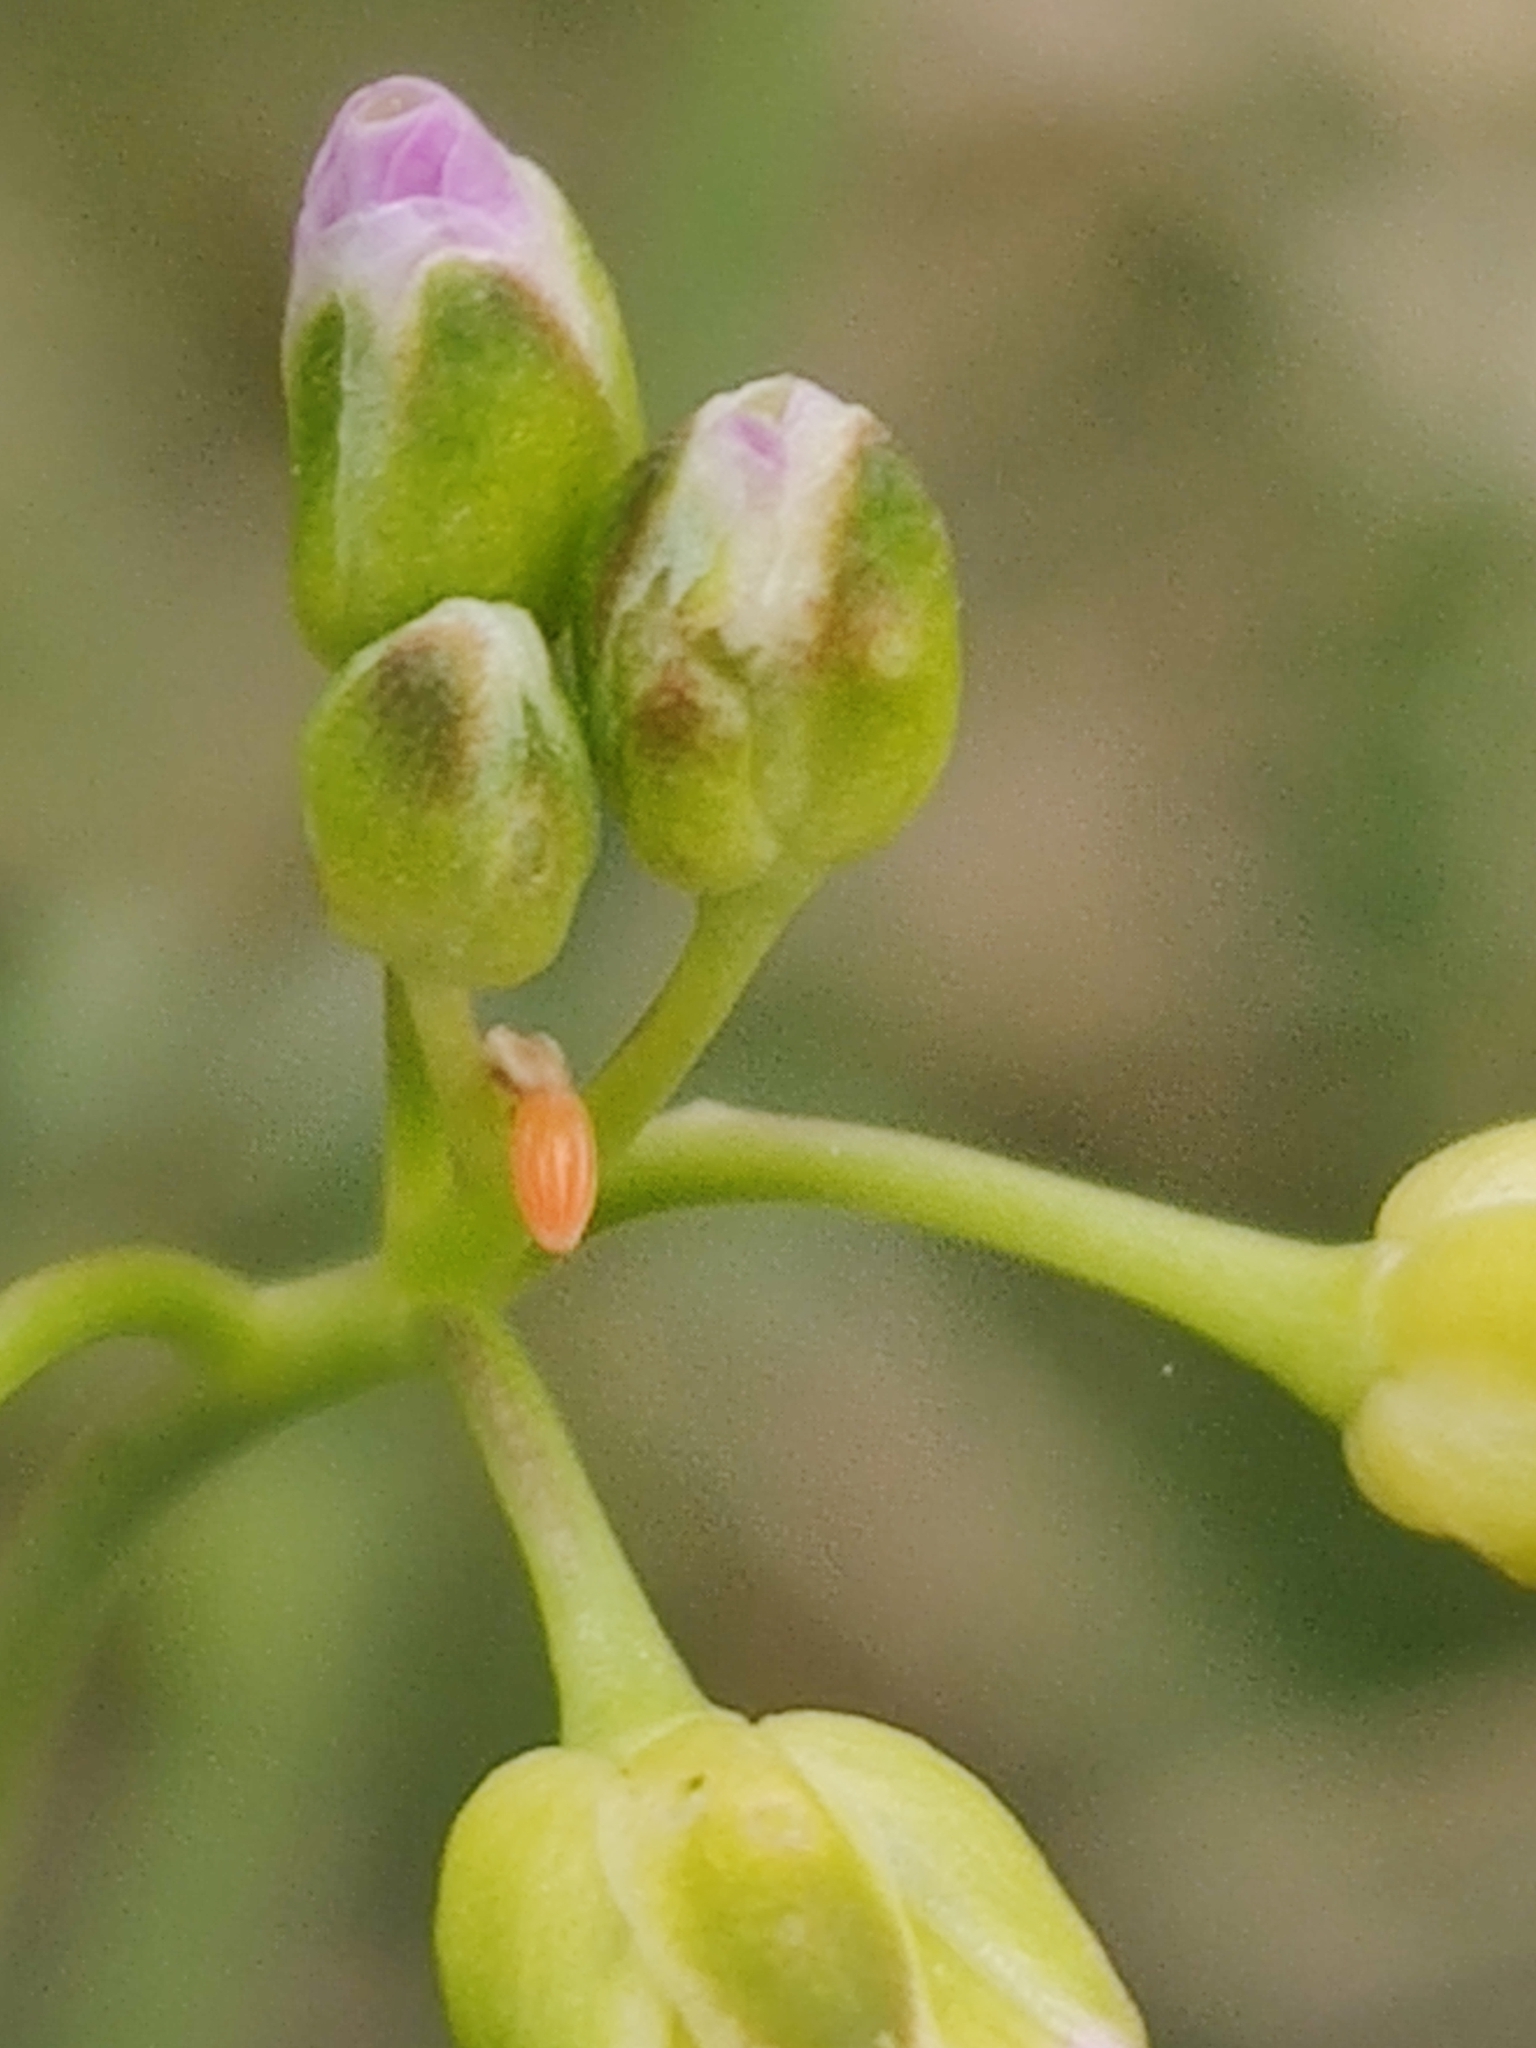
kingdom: Animalia
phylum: Arthropoda
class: Insecta
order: Lepidoptera
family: Pieridae
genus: Anthocharis
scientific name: Anthocharis cardamines
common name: Orange-tip
